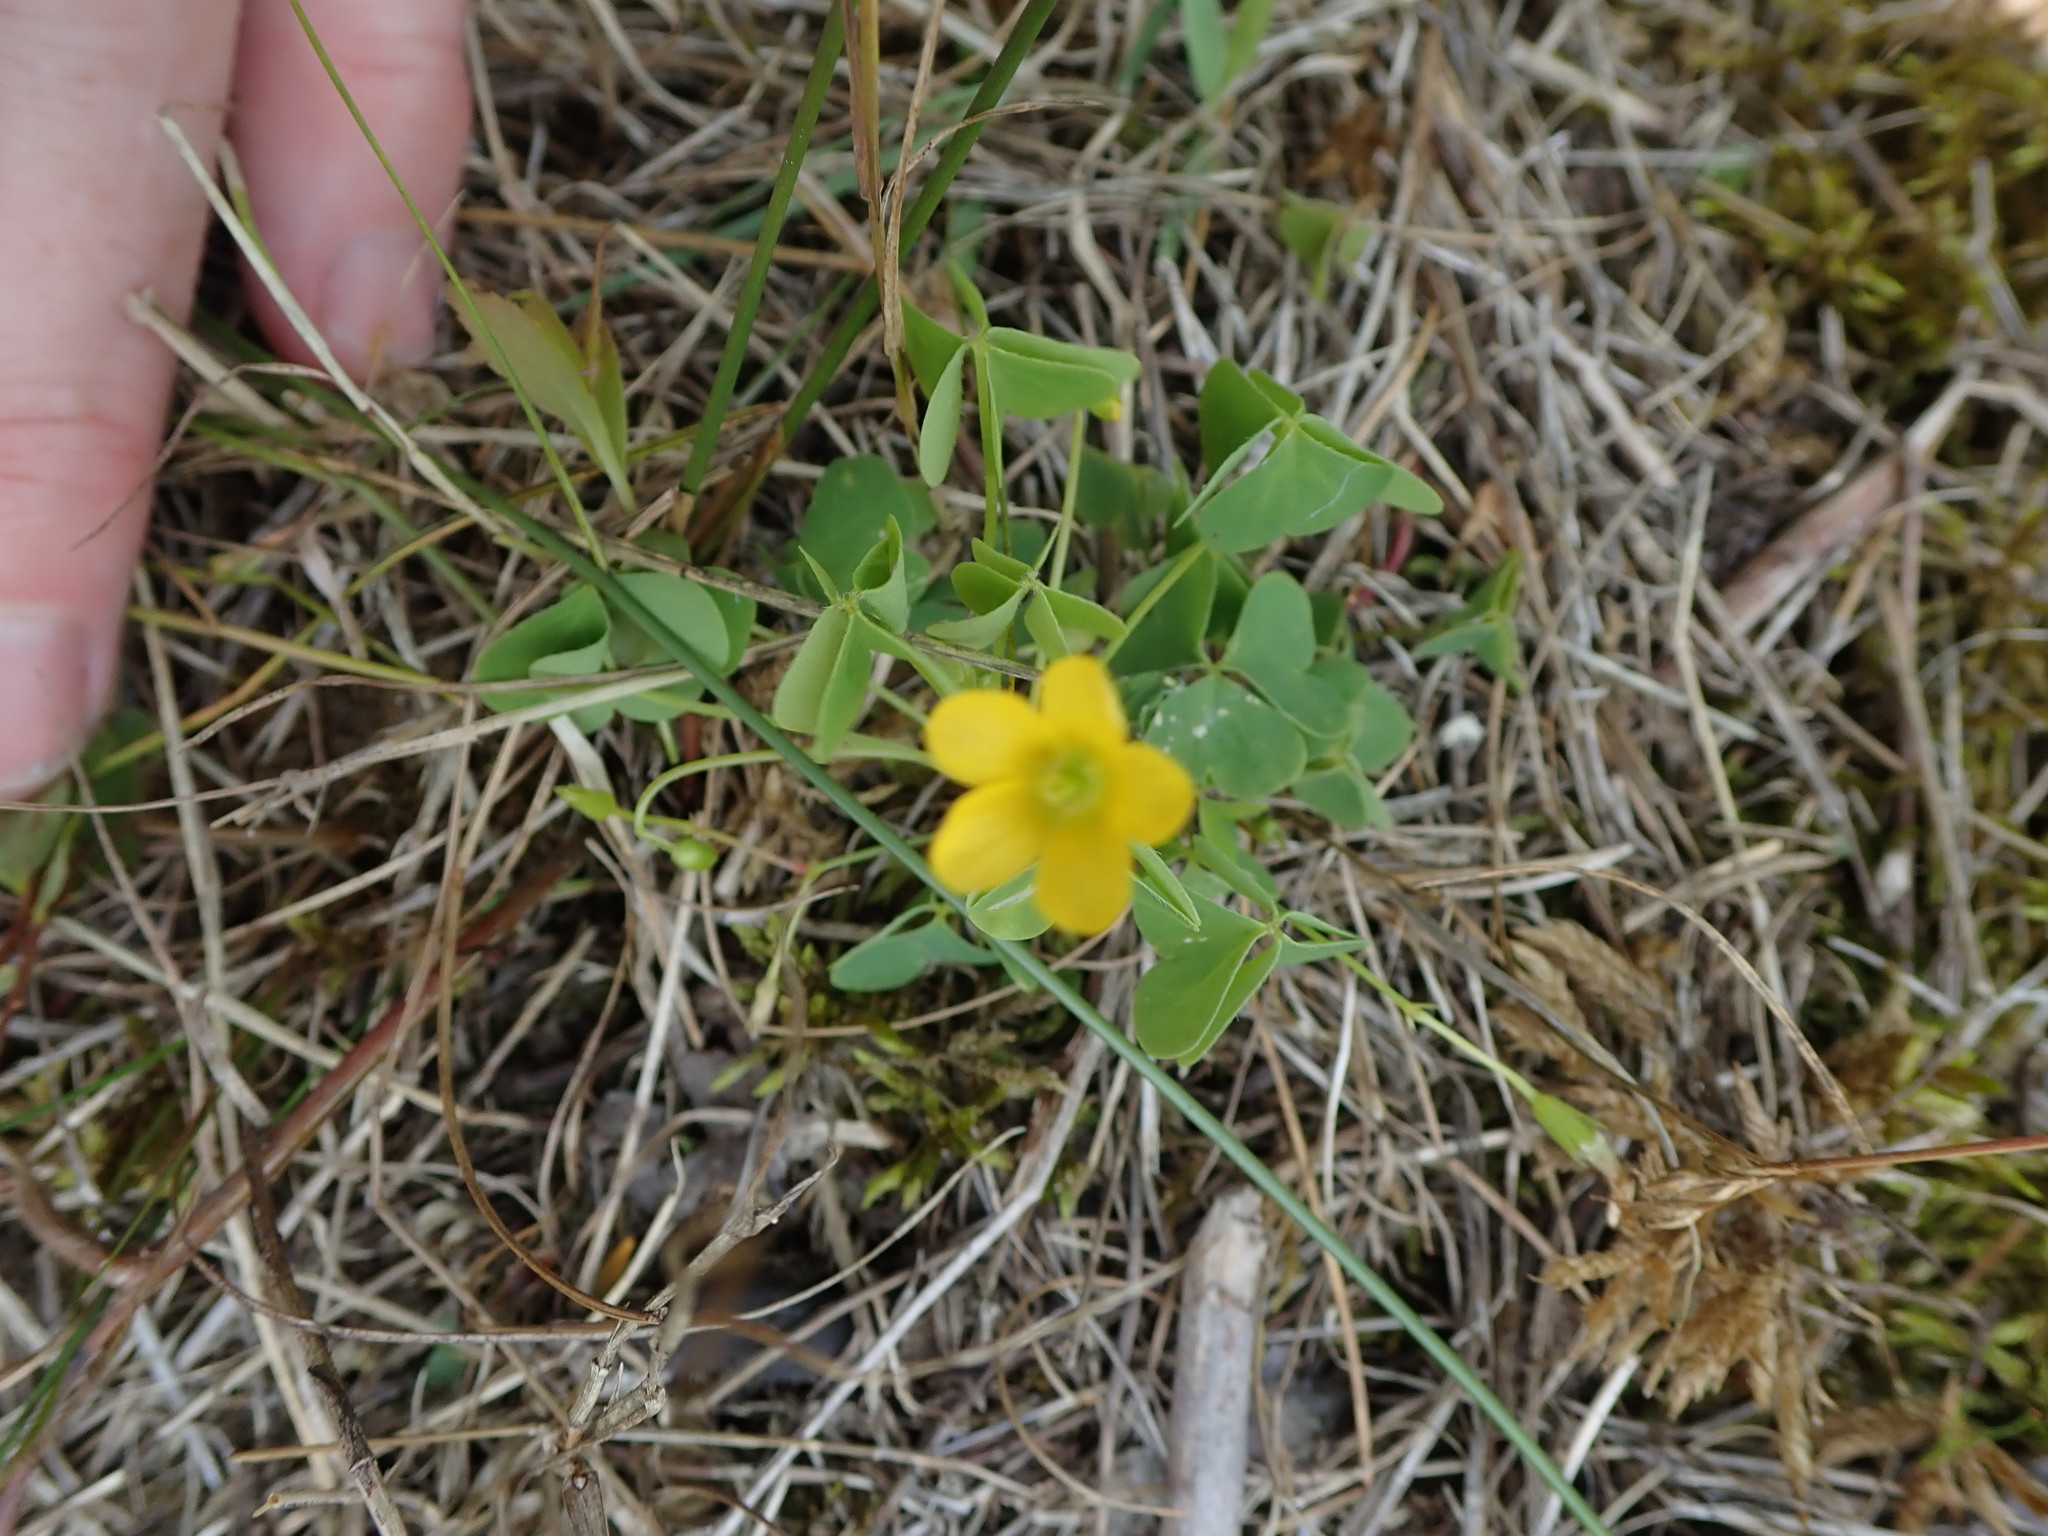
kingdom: Plantae
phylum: Tracheophyta
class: Magnoliopsida
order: Oxalidales
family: Oxalidaceae
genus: Oxalis
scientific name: Oxalis stricta
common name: Upright yellow-sorrel
